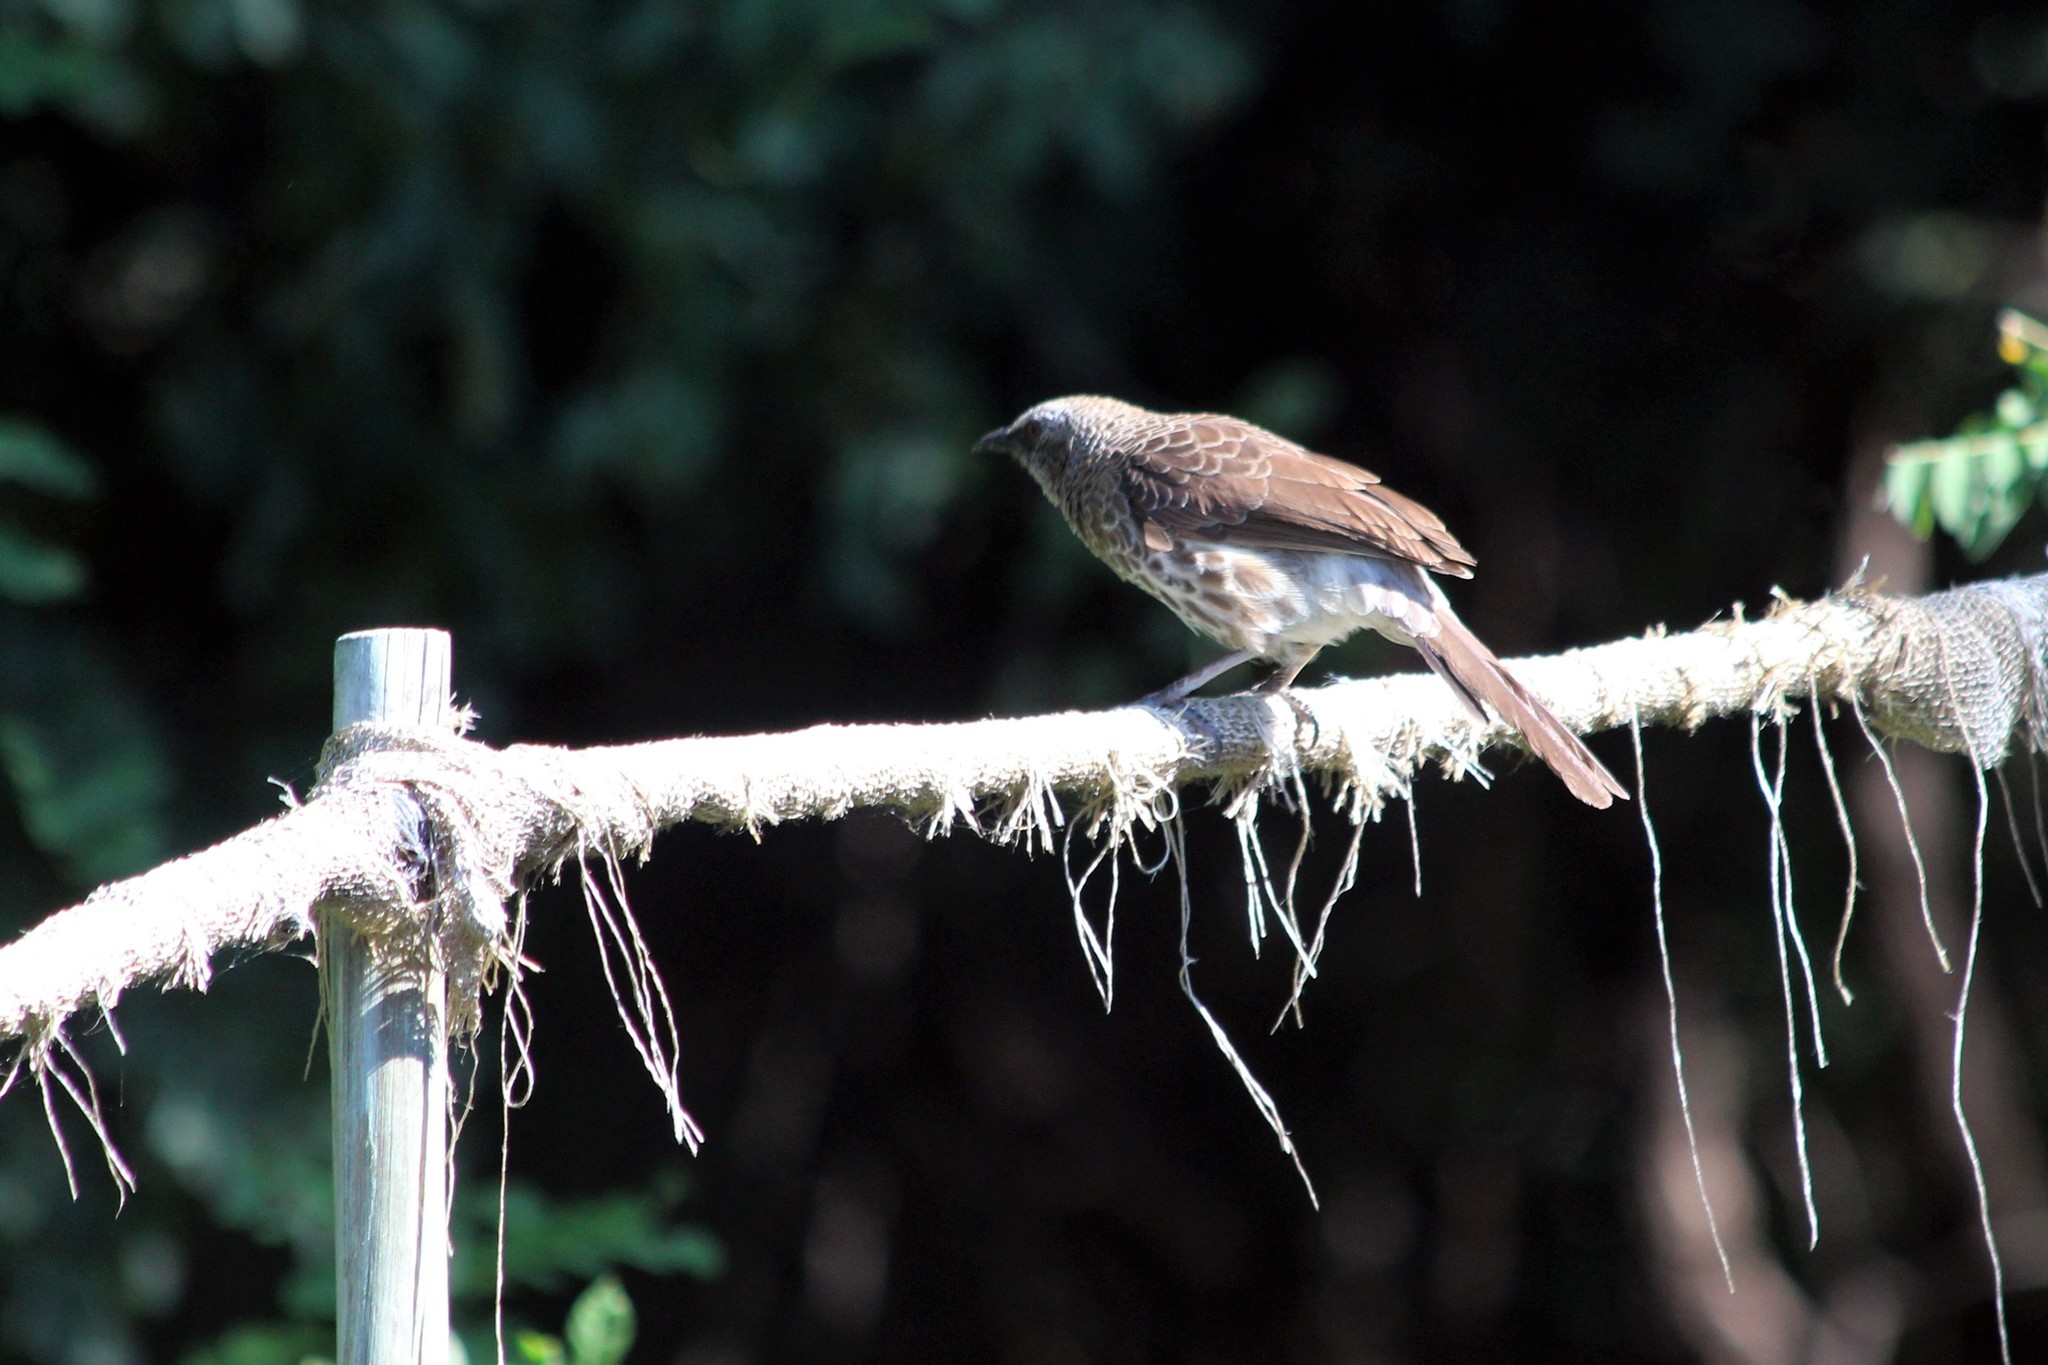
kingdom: Animalia
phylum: Chordata
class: Aves
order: Passeriformes
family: Leiothrichidae
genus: Turdoides
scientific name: Turdoides hartlaubii
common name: Hartlaub's babbler
